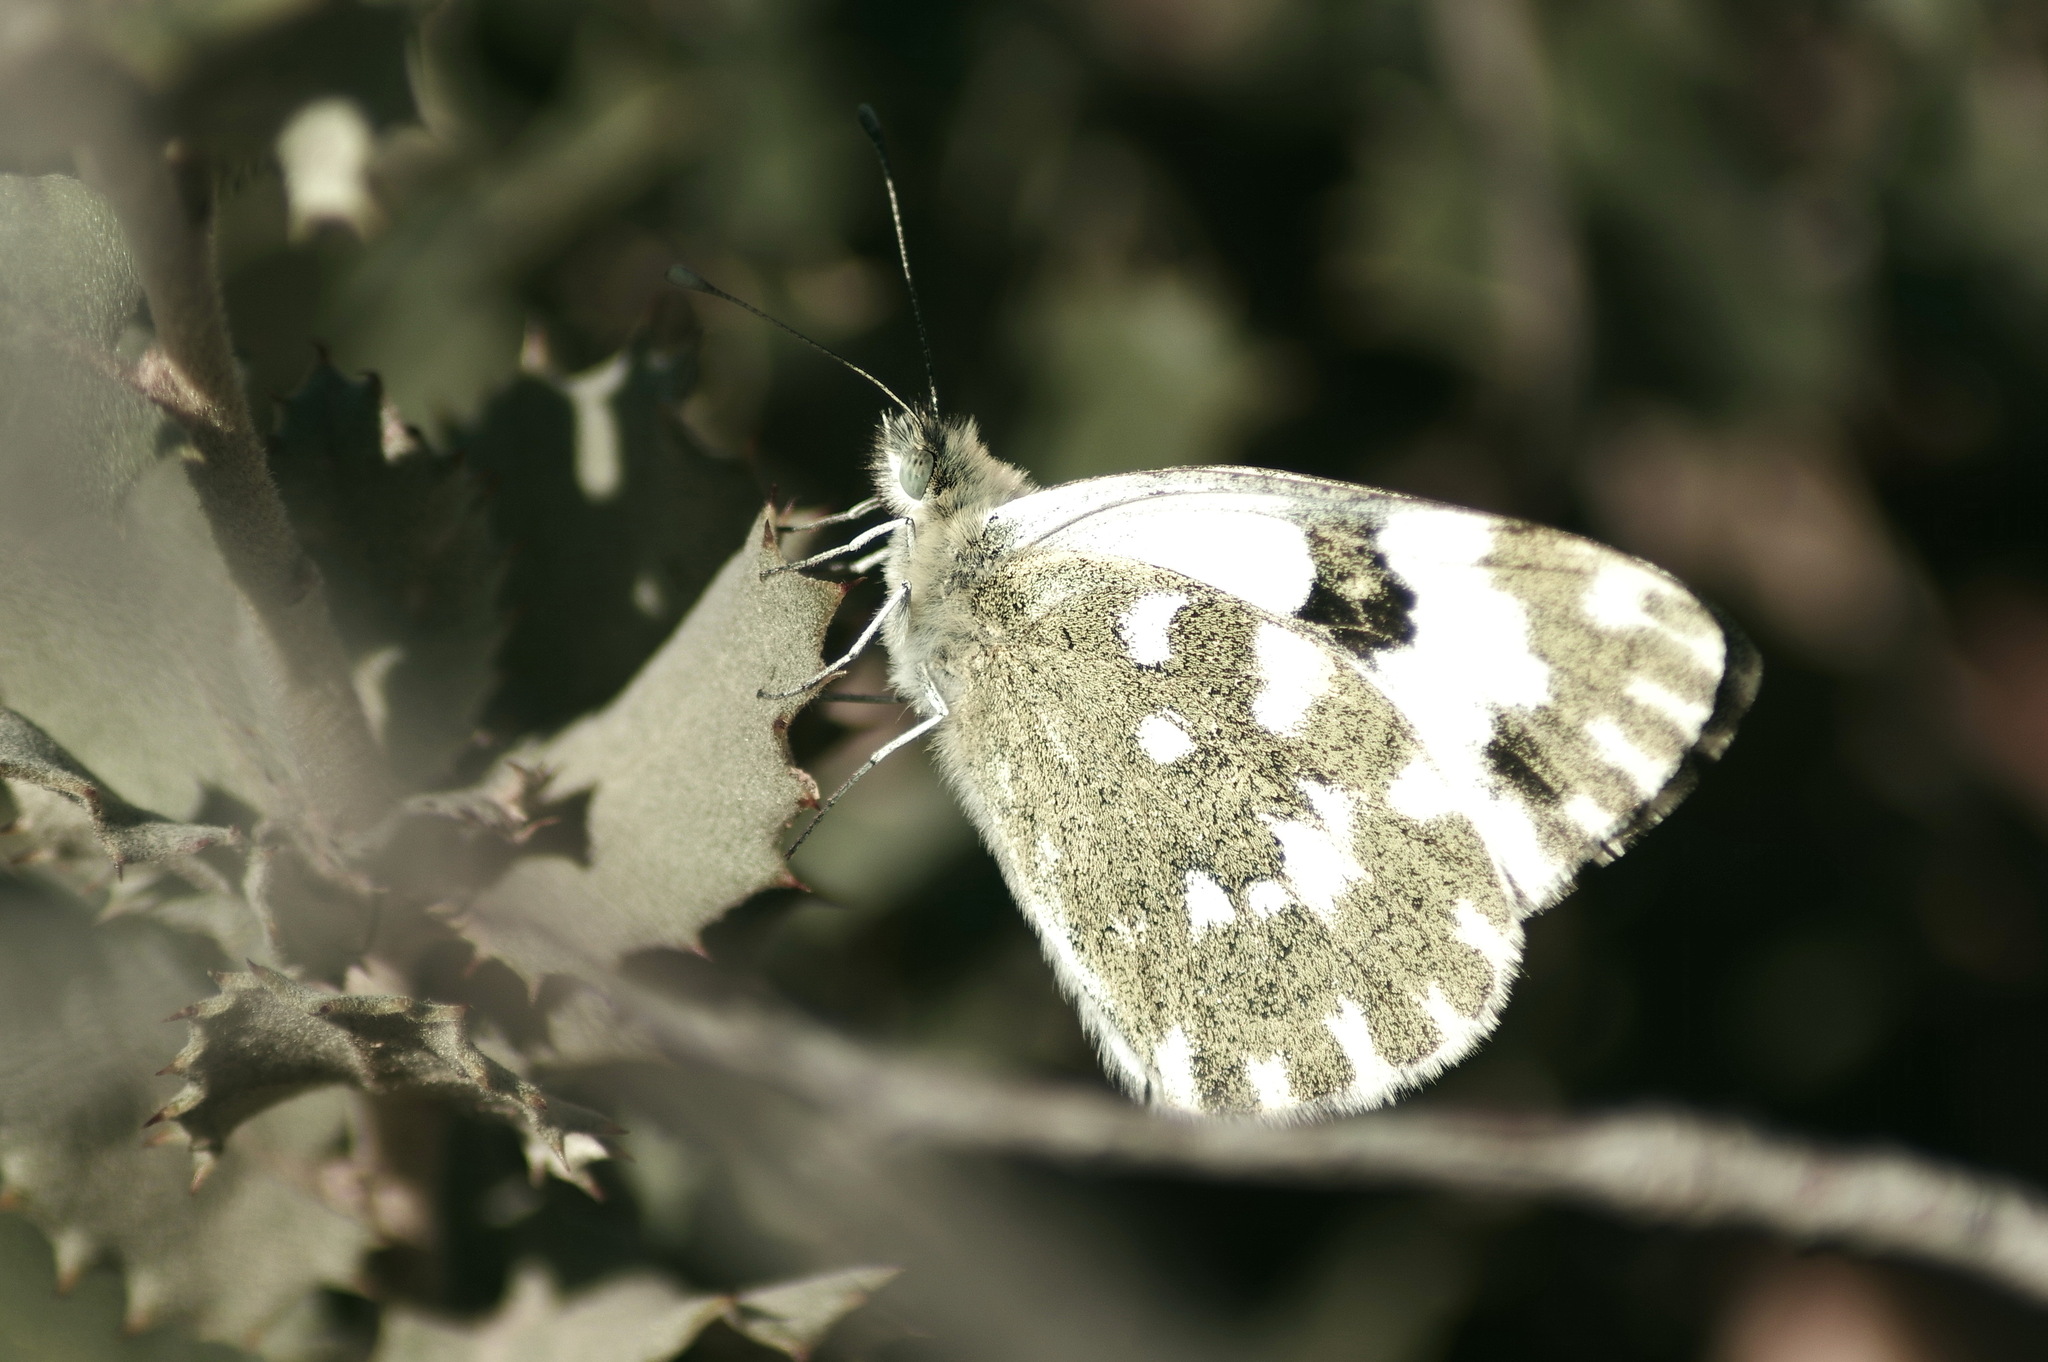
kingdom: Animalia
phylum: Arthropoda
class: Insecta
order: Lepidoptera
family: Pieridae
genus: Pontia
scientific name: Pontia daplidice
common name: Bath white
